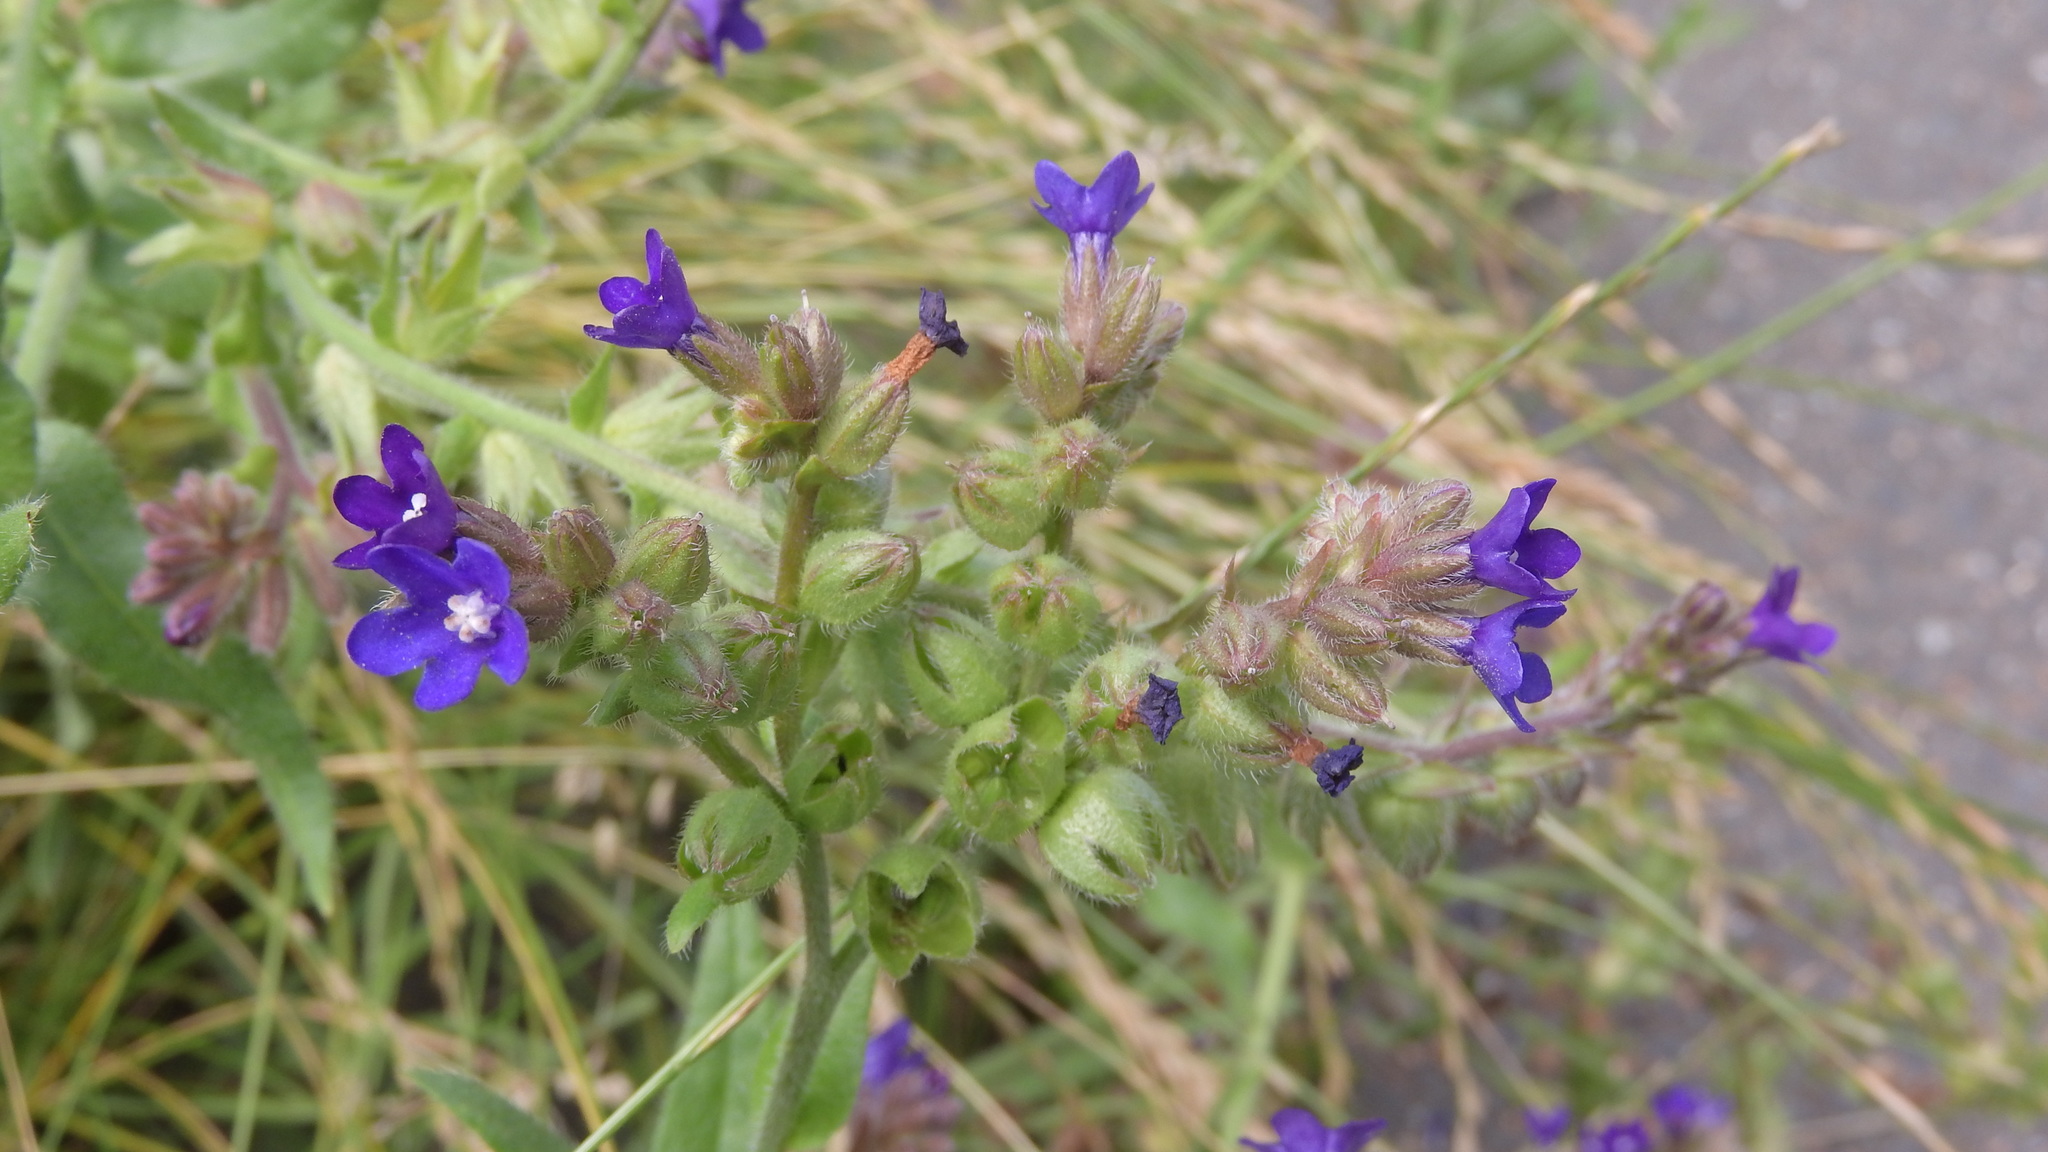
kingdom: Plantae
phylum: Tracheophyta
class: Magnoliopsida
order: Boraginales
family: Boraginaceae
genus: Anchusa
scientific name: Anchusa officinalis
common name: Alkanet
